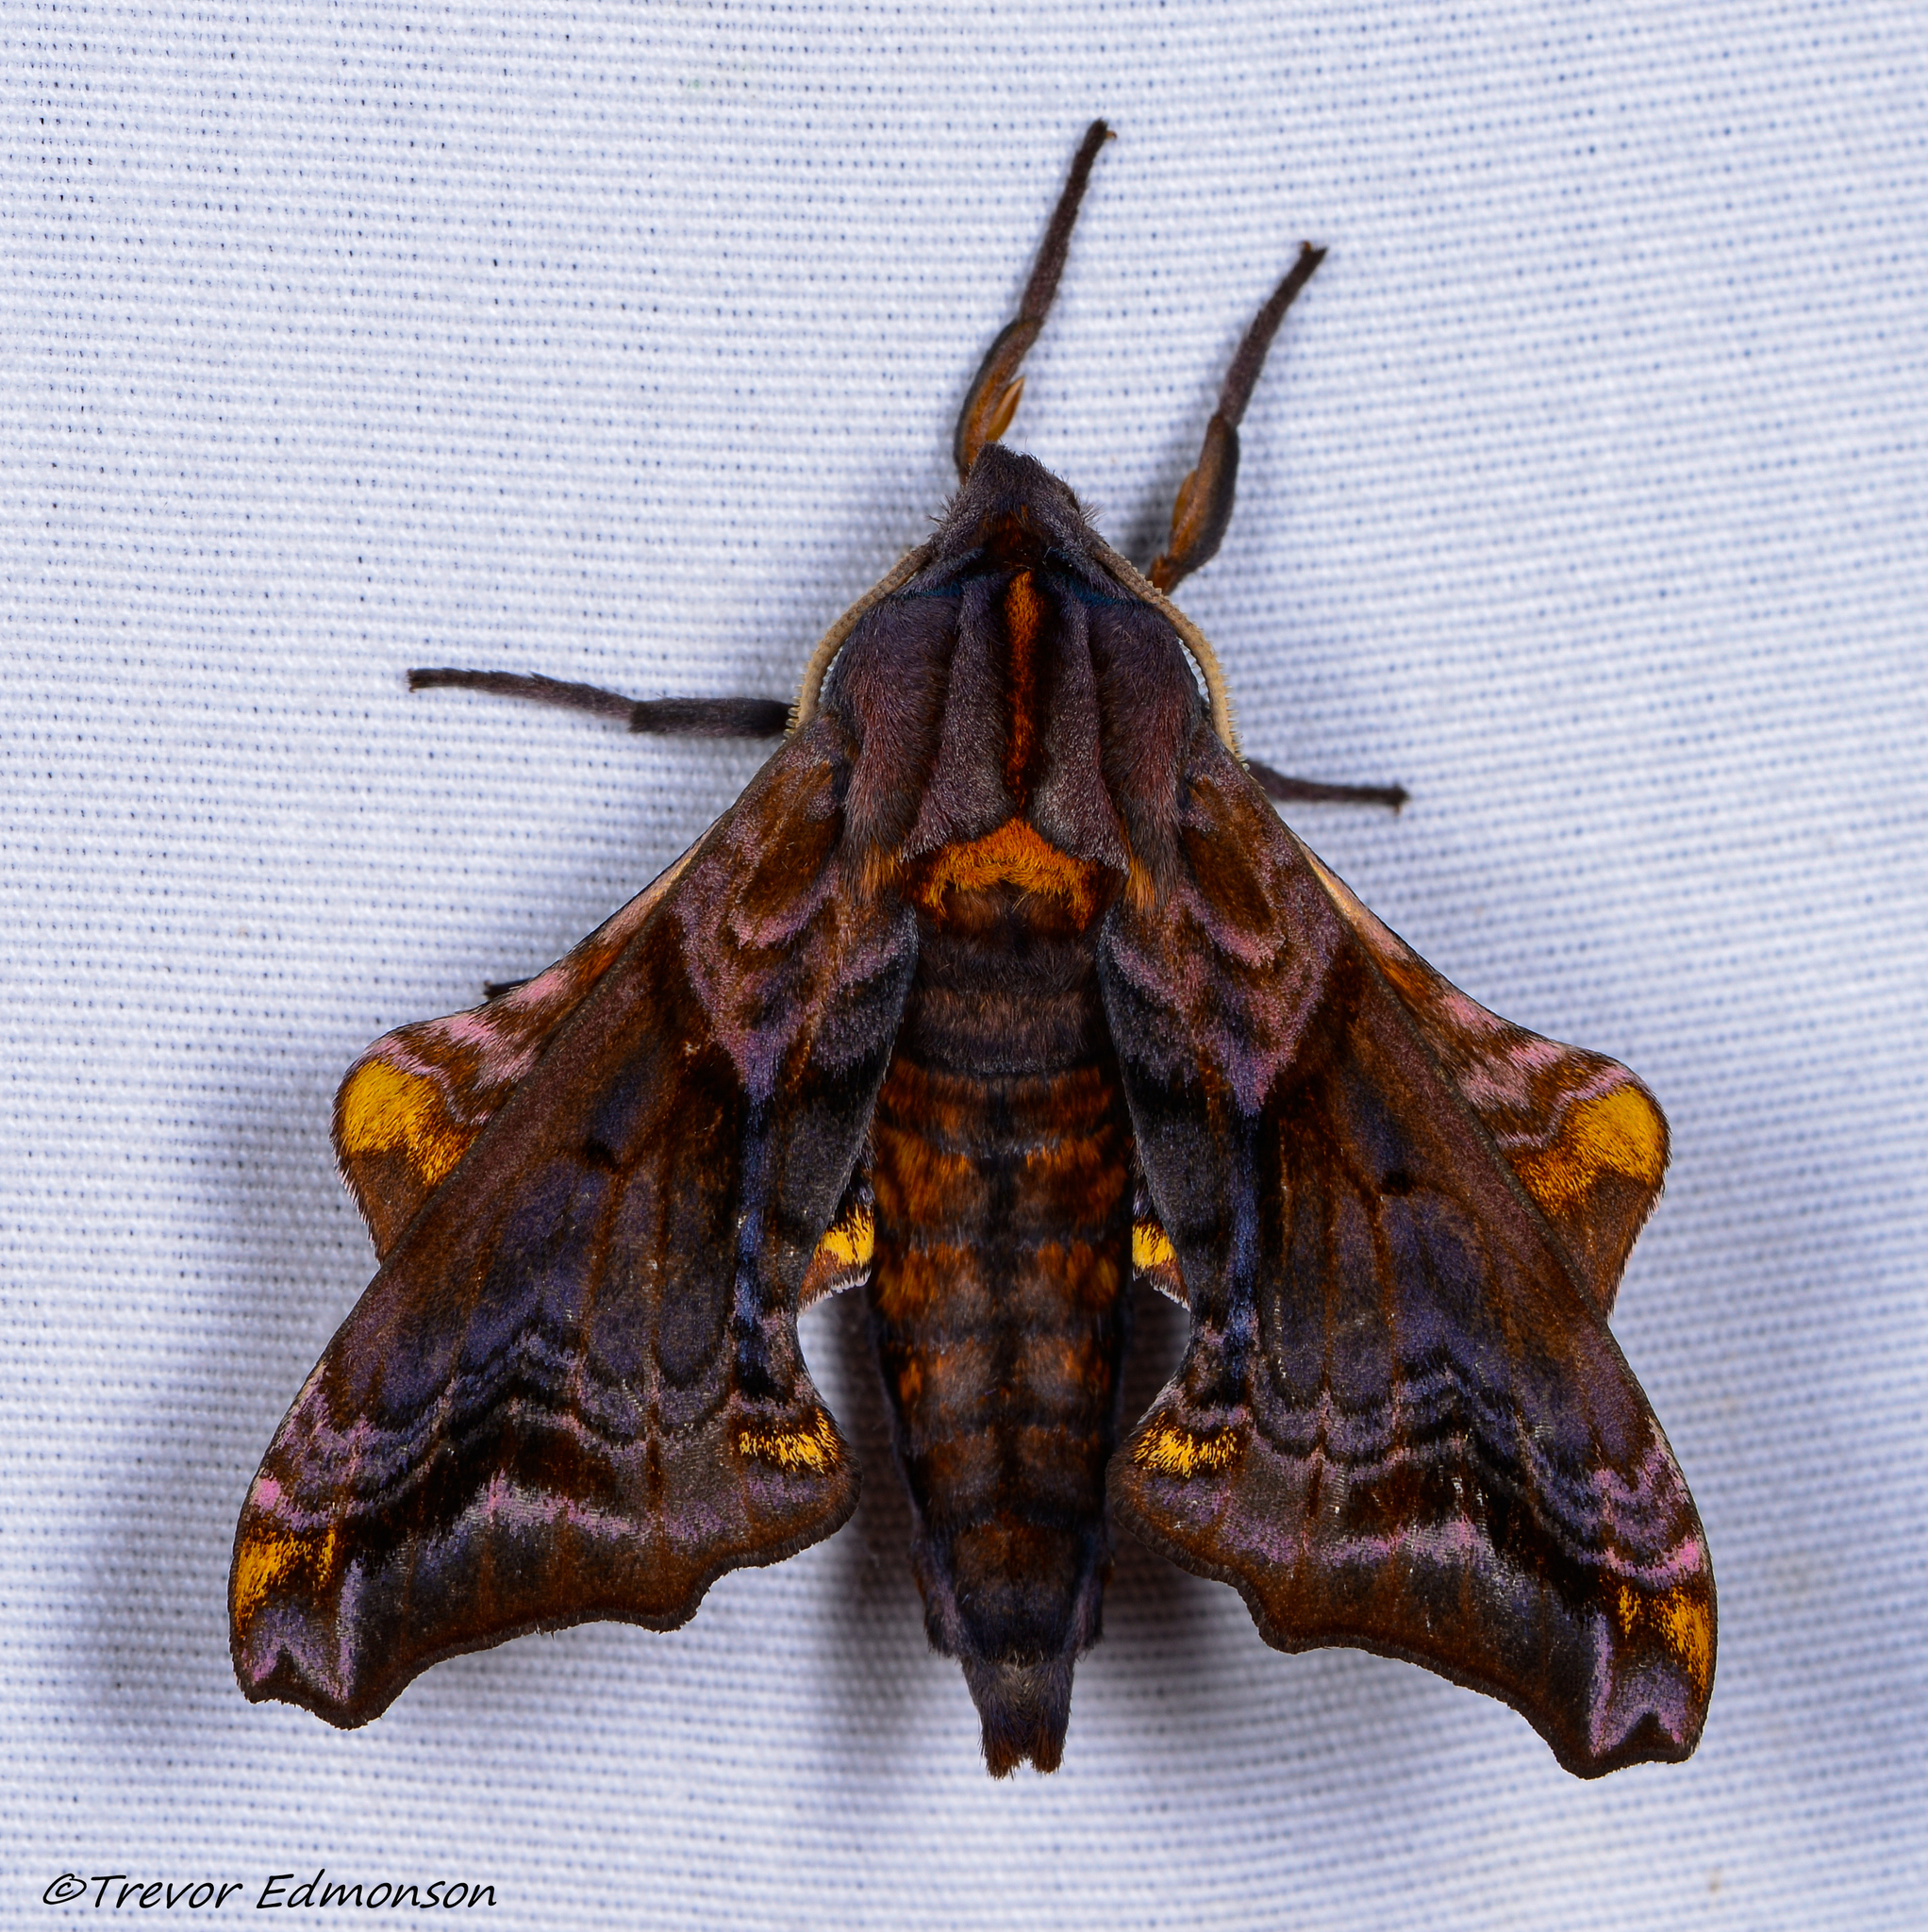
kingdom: Animalia
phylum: Arthropoda
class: Insecta
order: Lepidoptera
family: Sphingidae
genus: Paonias
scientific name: Paonias myops
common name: Small-eyed sphinx
